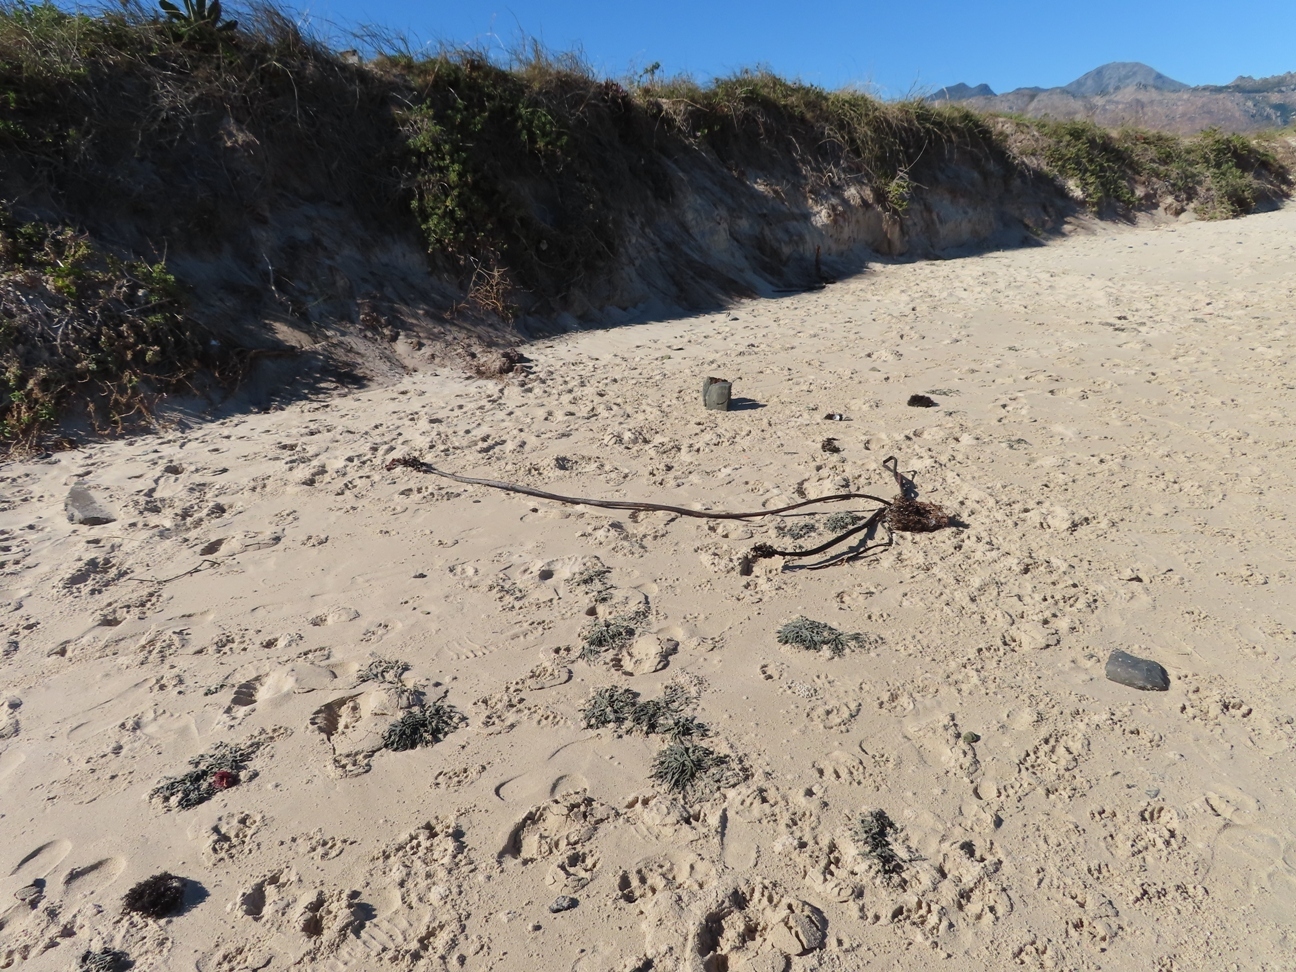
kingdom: Chromista
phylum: Ochrophyta
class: Phaeophyceae
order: Laminariales
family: Lessoniaceae
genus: Ecklonia
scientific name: Ecklonia
